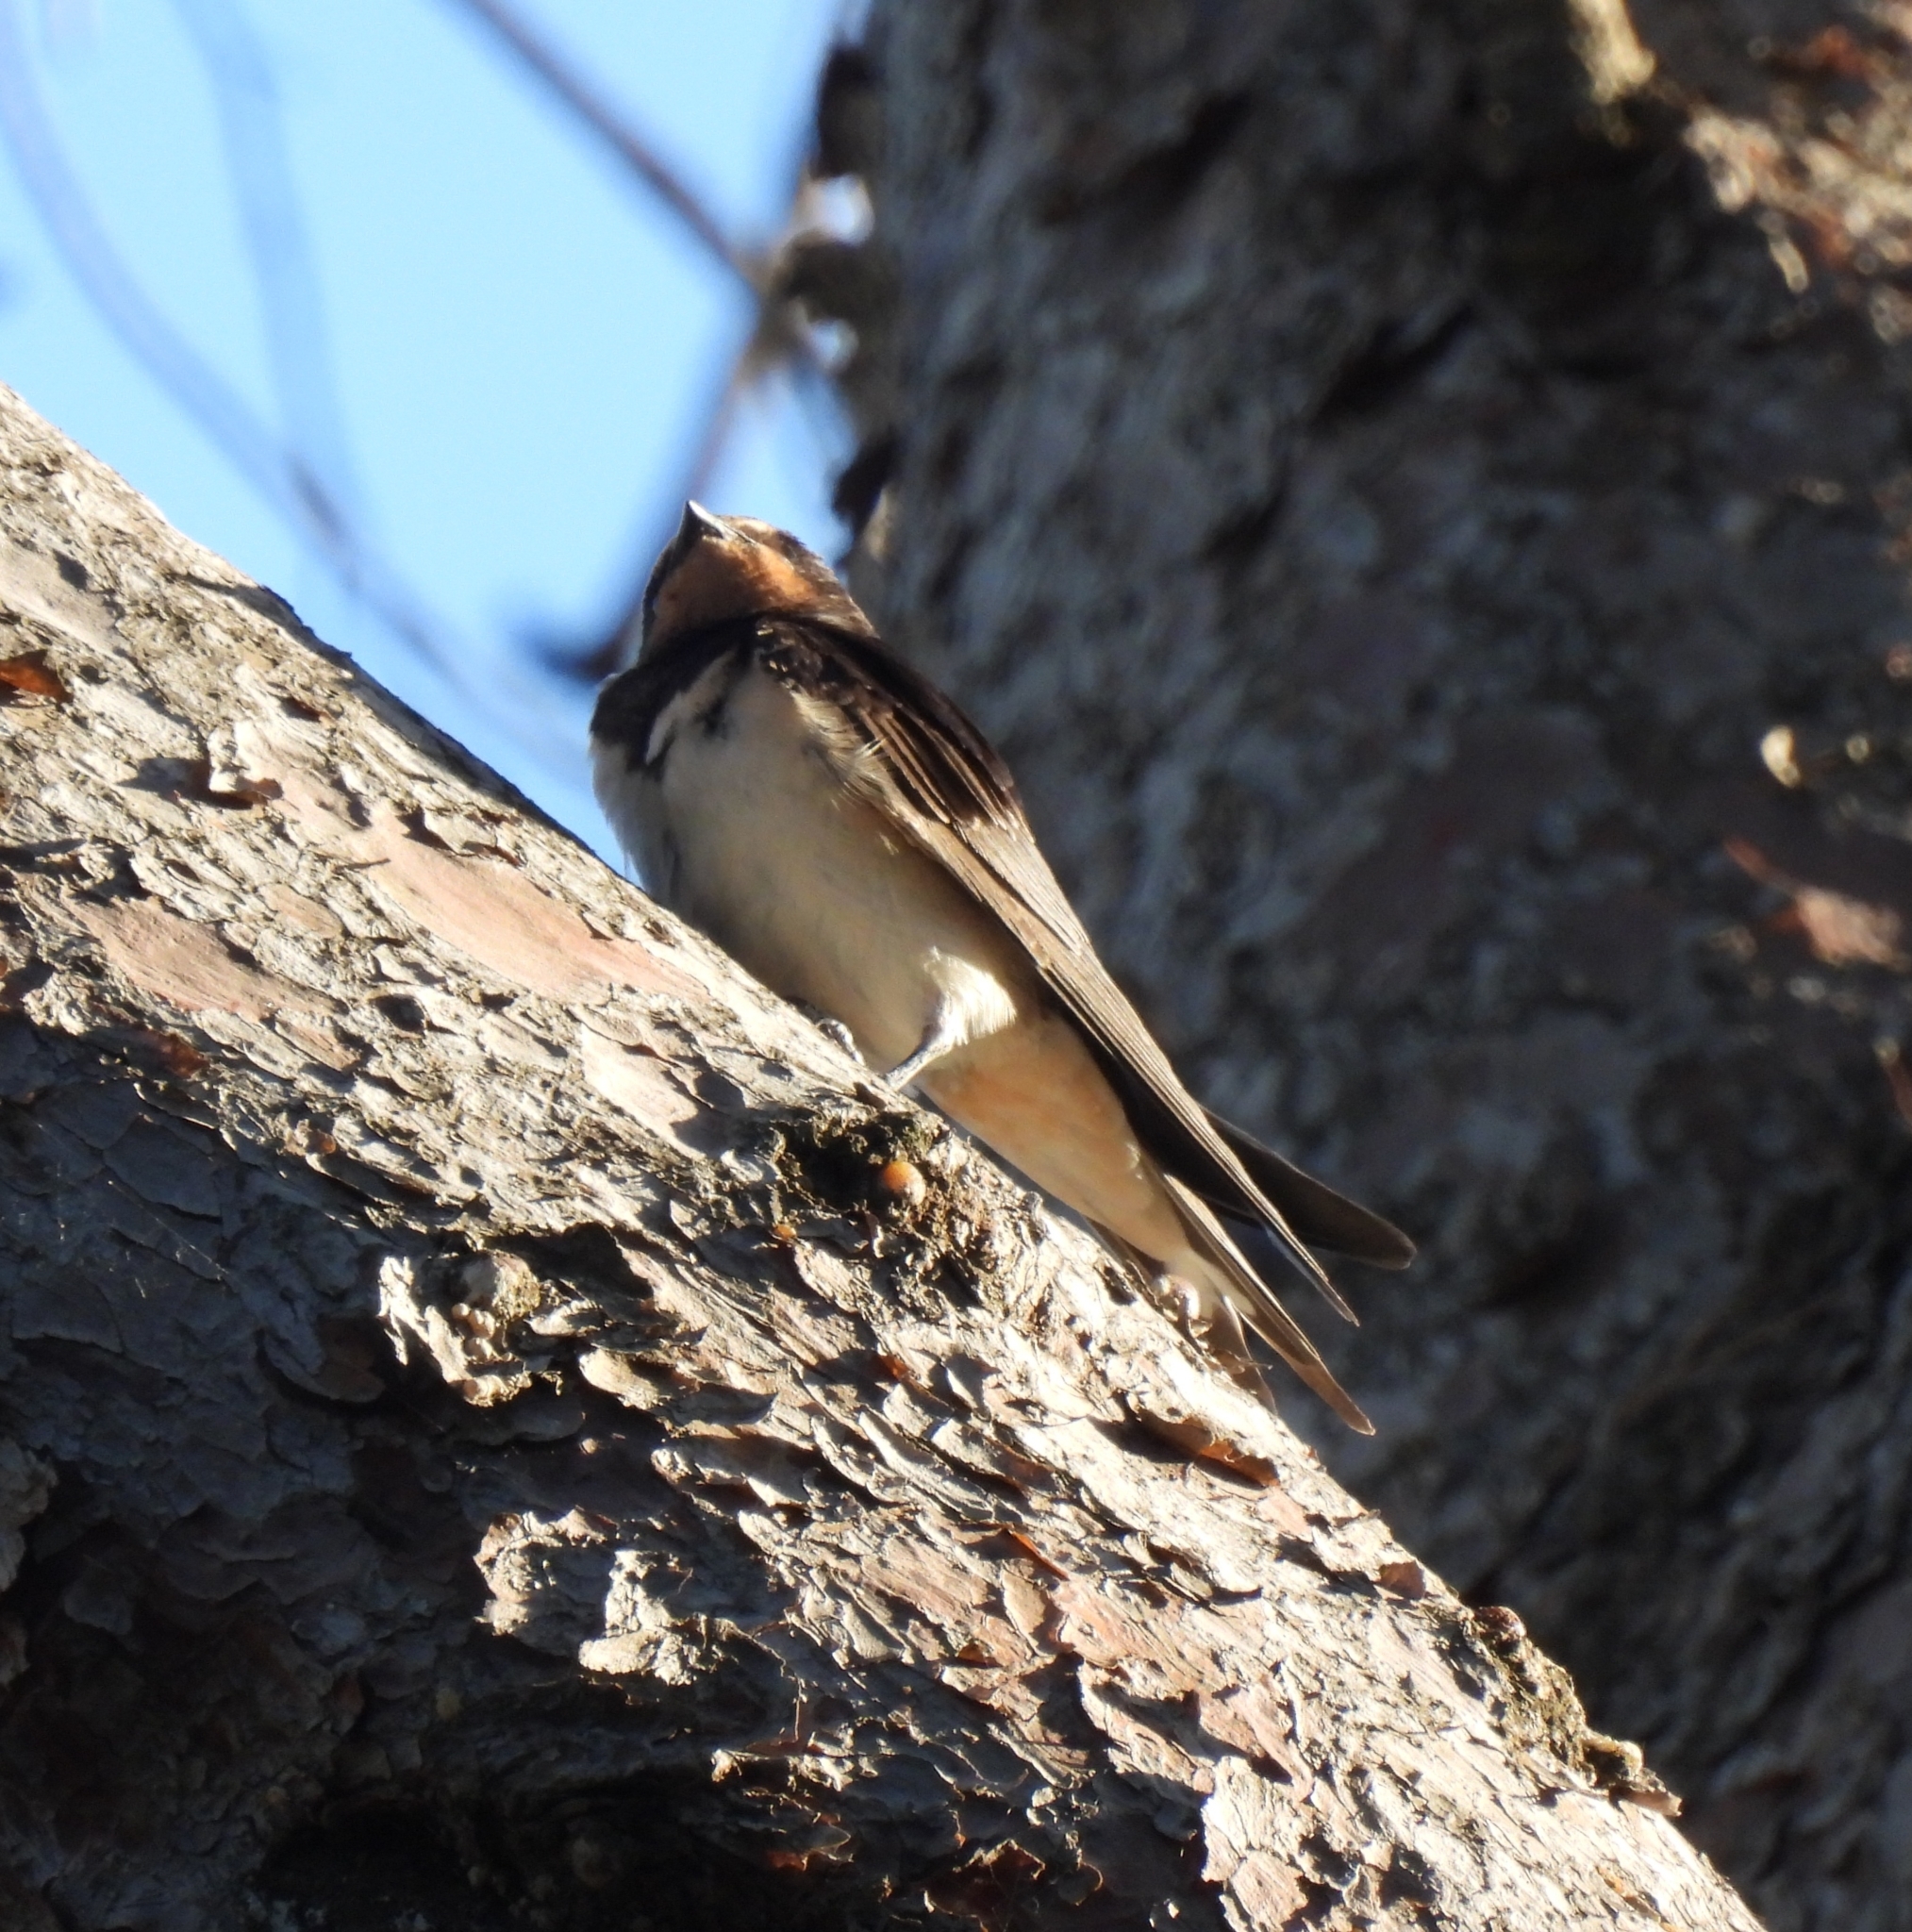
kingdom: Animalia
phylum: Chordata
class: Aves
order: Passeriformes
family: Hirundinidae
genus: Hirundo
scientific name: Hirundo rustica
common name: Barn swallow
